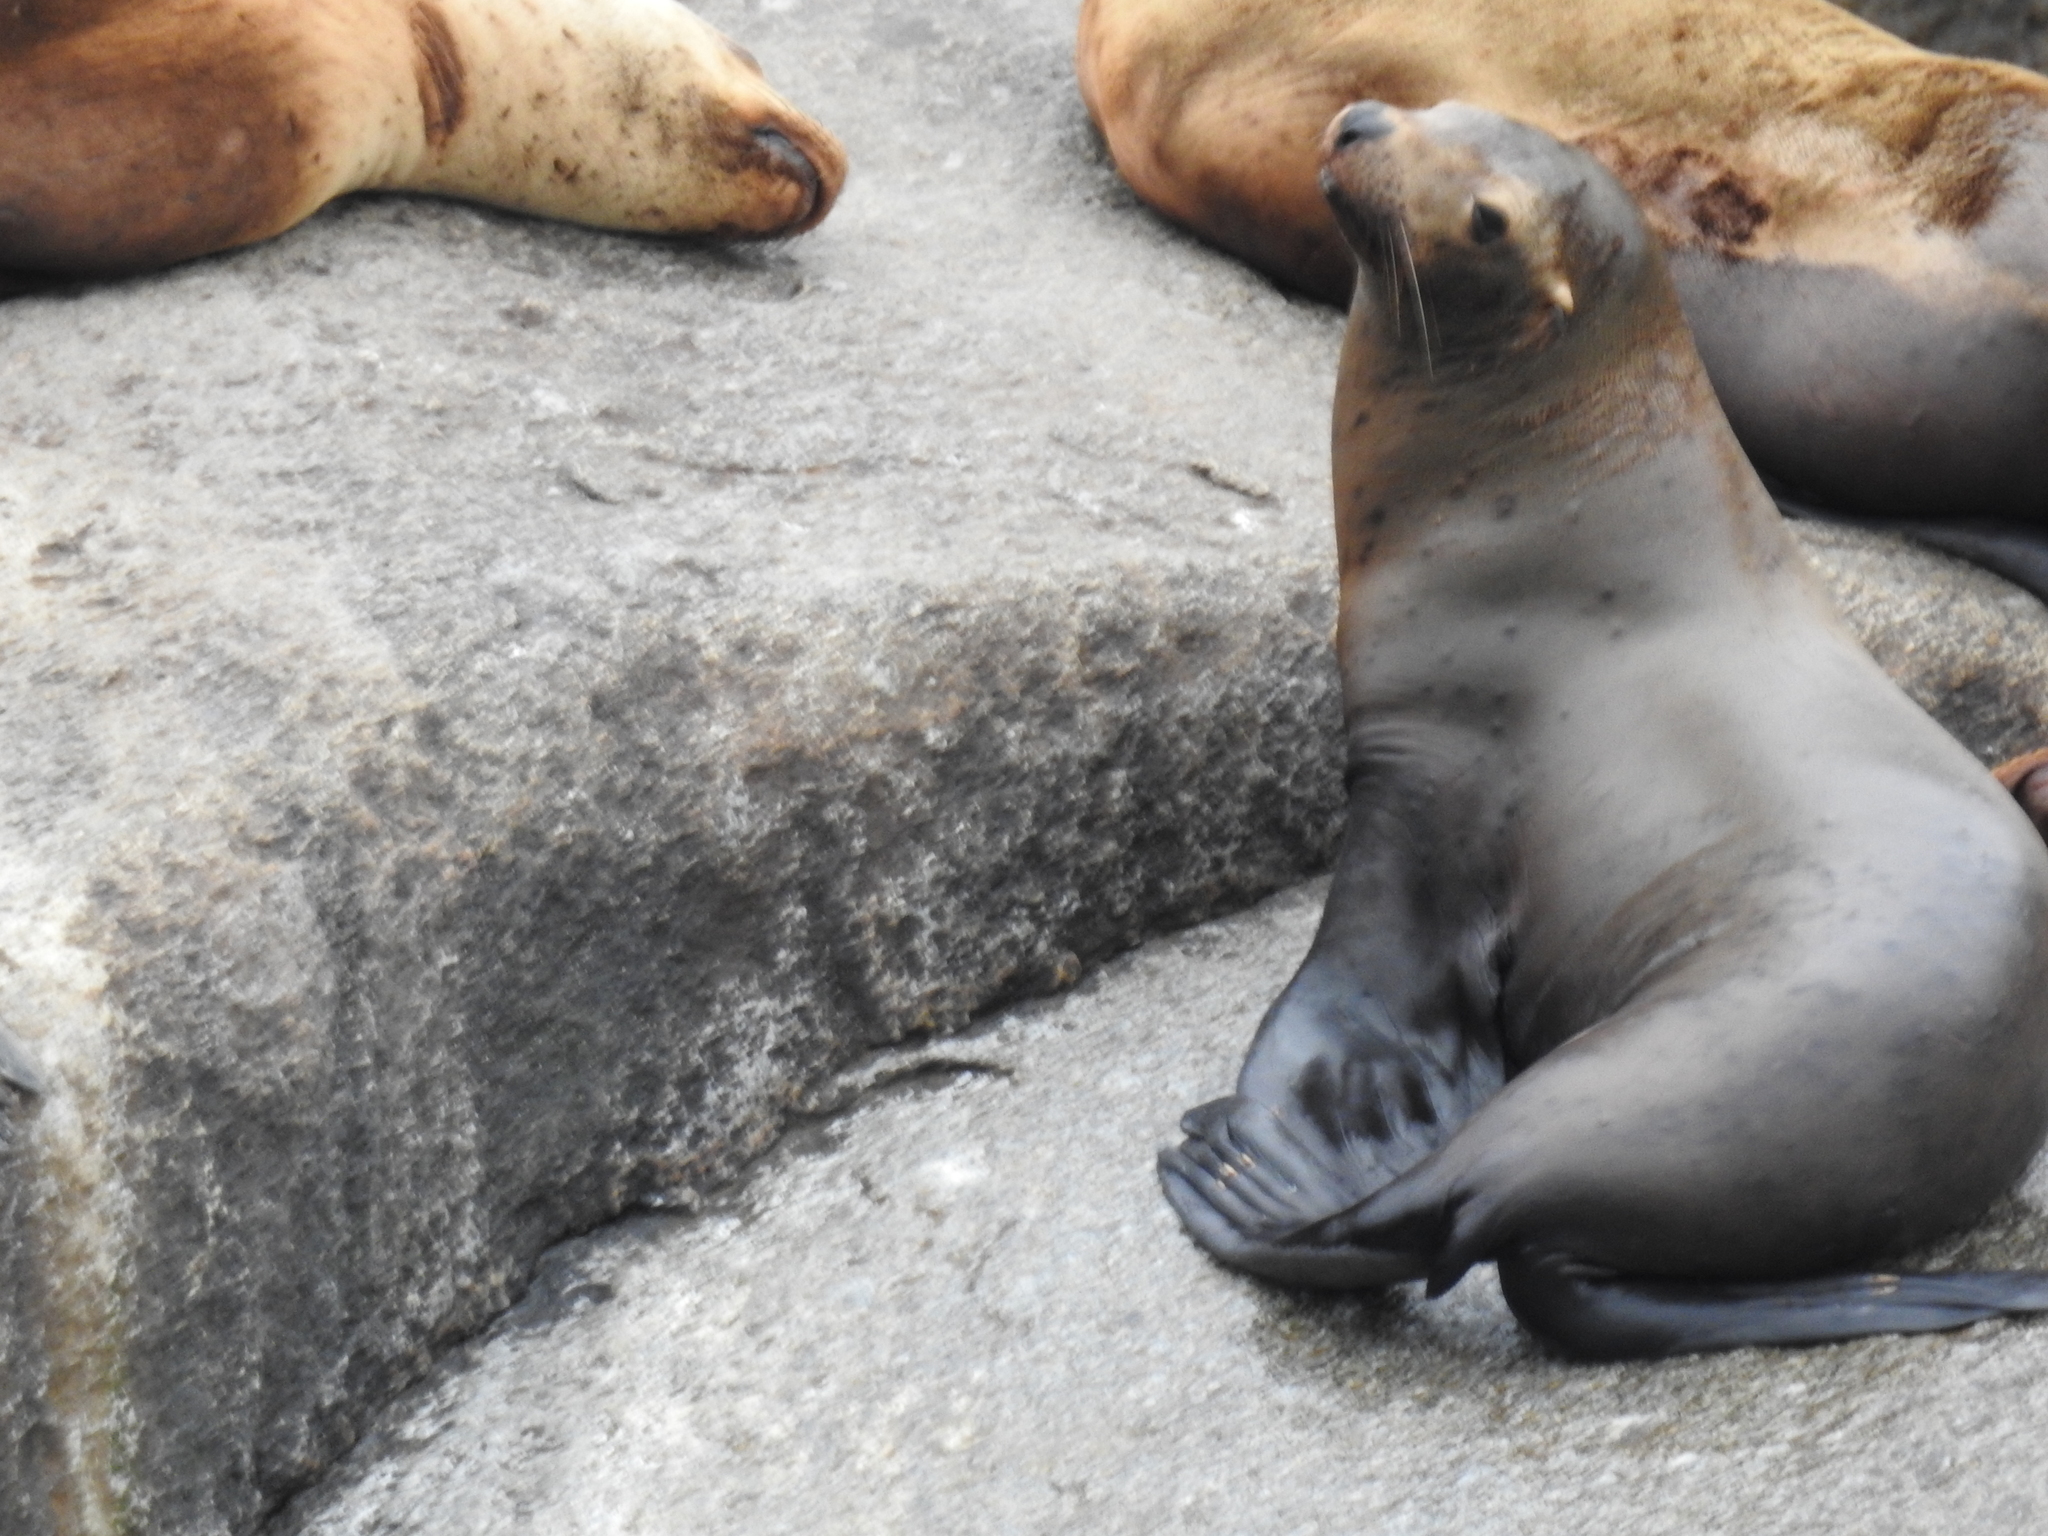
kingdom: Animalia
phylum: Chordata
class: Mammalia
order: Carnivora
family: Otariidae
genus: Eumetopias
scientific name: Eumetopias jubatus
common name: Steller sea lion
